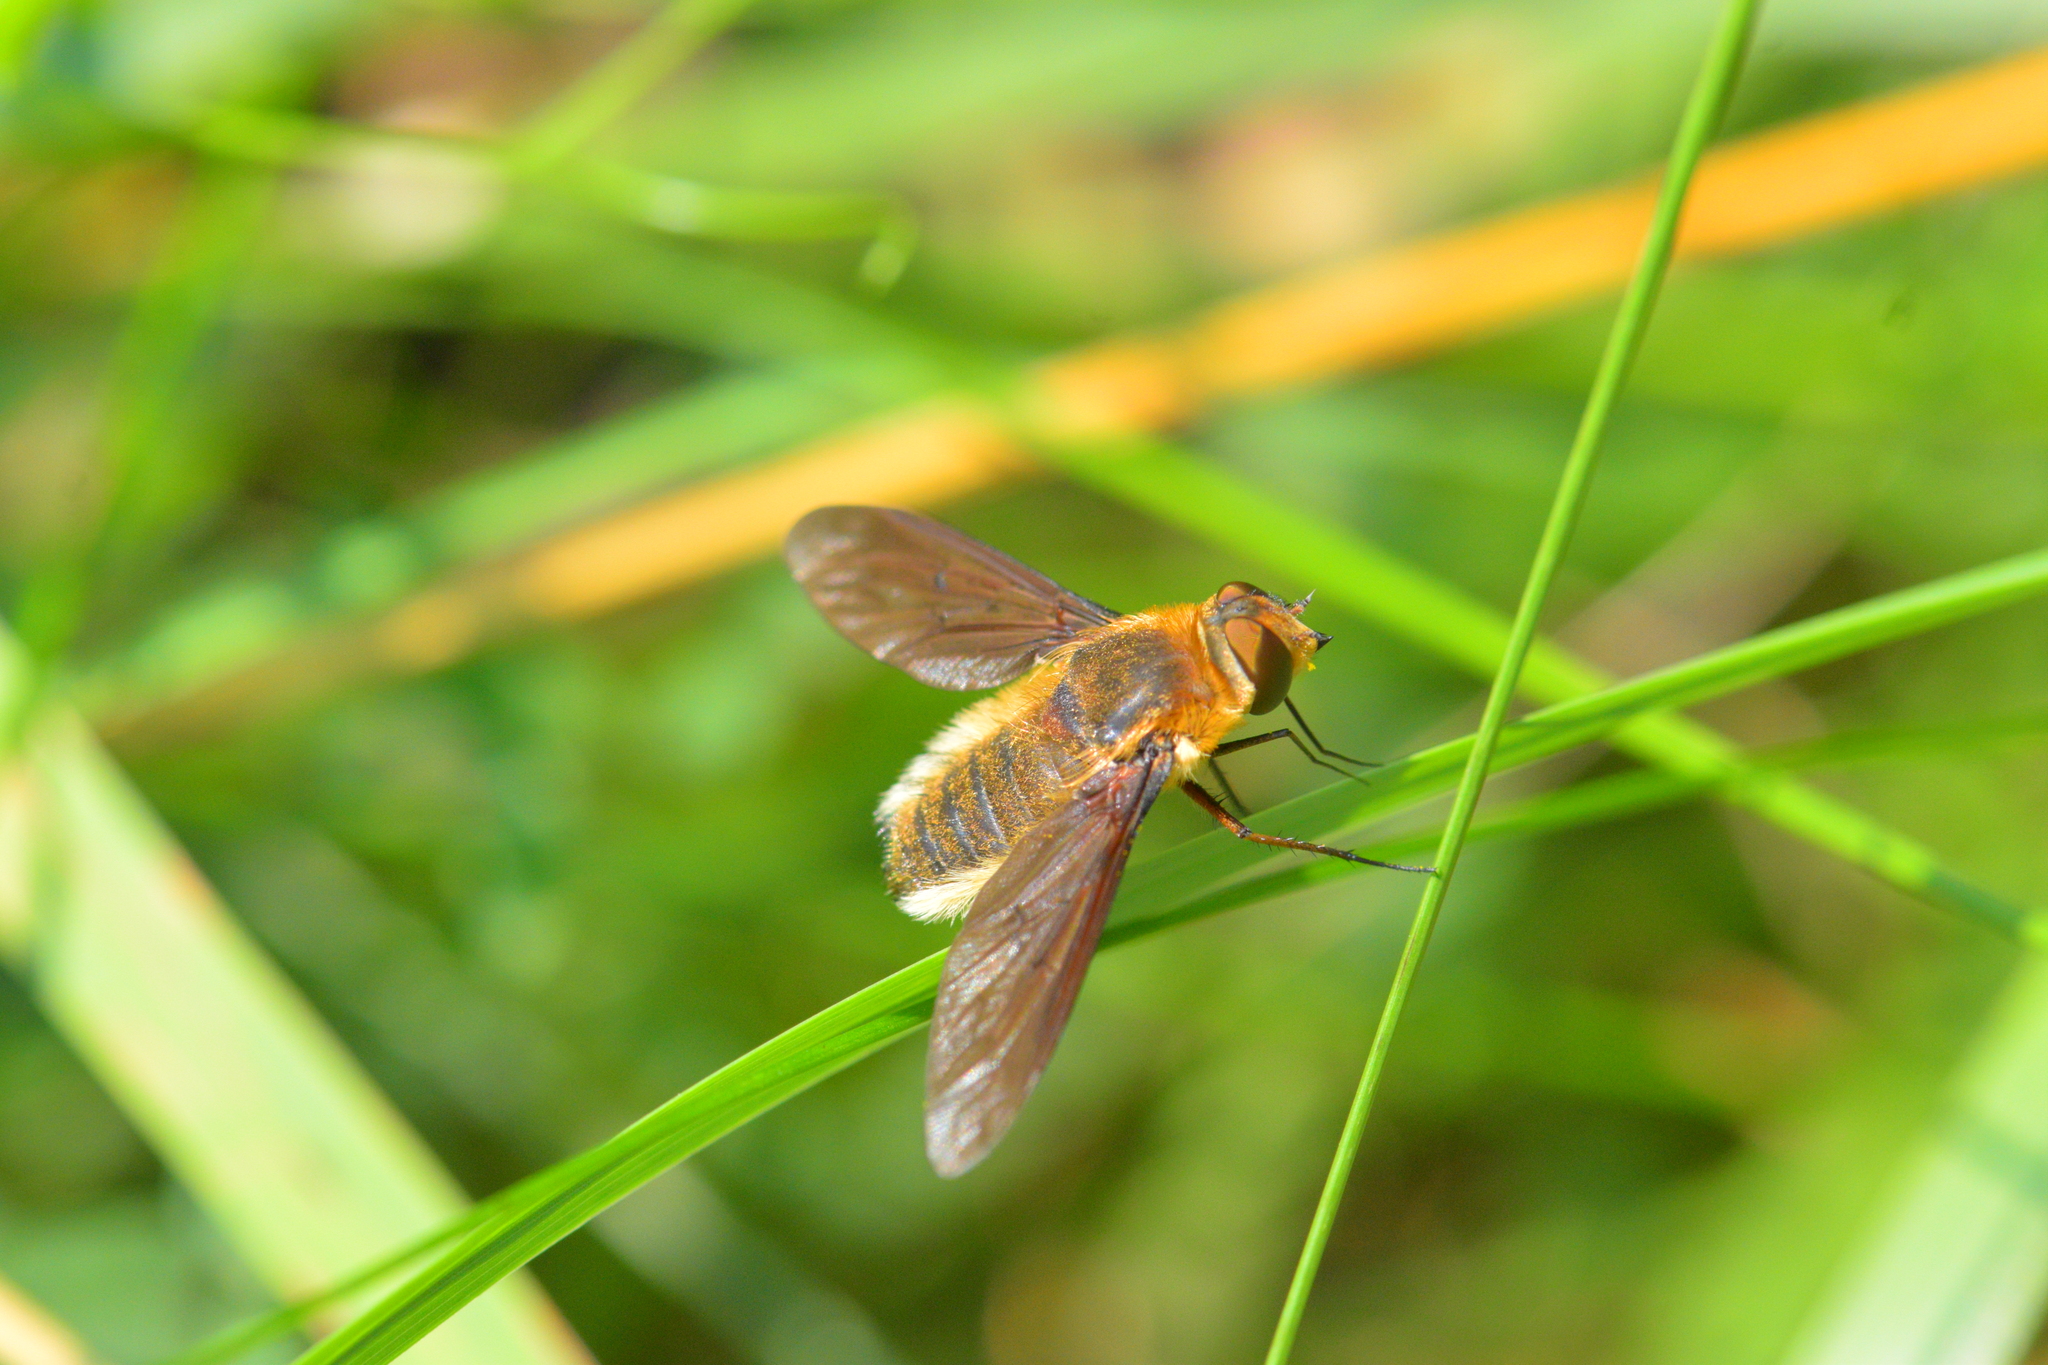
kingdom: Animalia
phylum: Arthropoda
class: Insecta
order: Diptera
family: Bombyliidae
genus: Poecilanthrax
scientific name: Poecilanthrax tegminipennis
